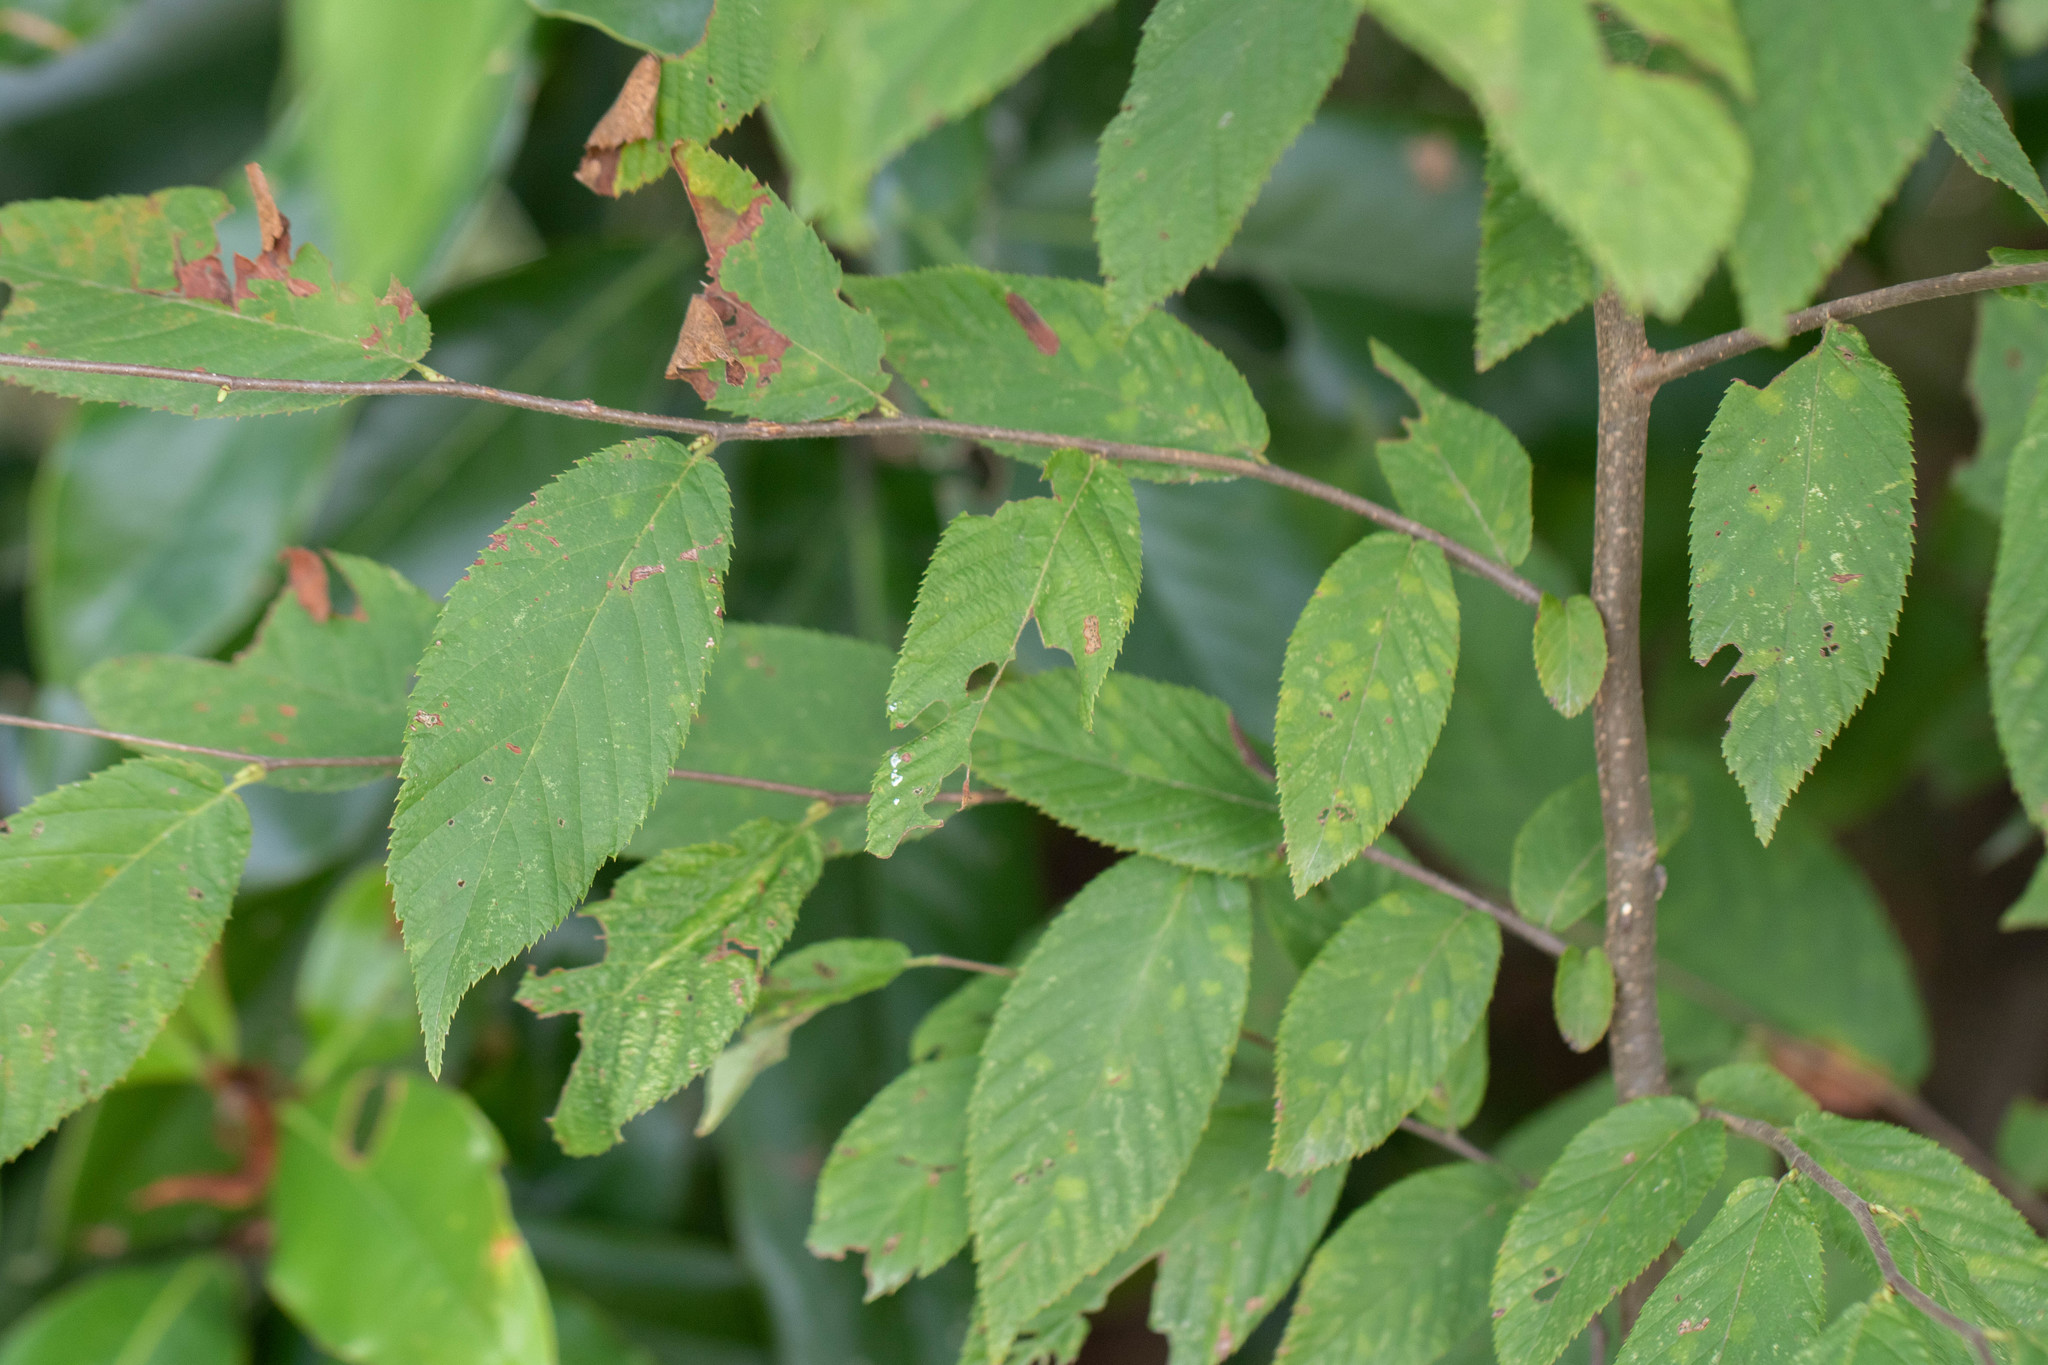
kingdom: Plantae
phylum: Tracheophyta
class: Magnoliopsida
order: Fagales
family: Betulaceae
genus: Ostrya
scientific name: Ostrya virginiana
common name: Ironwood
